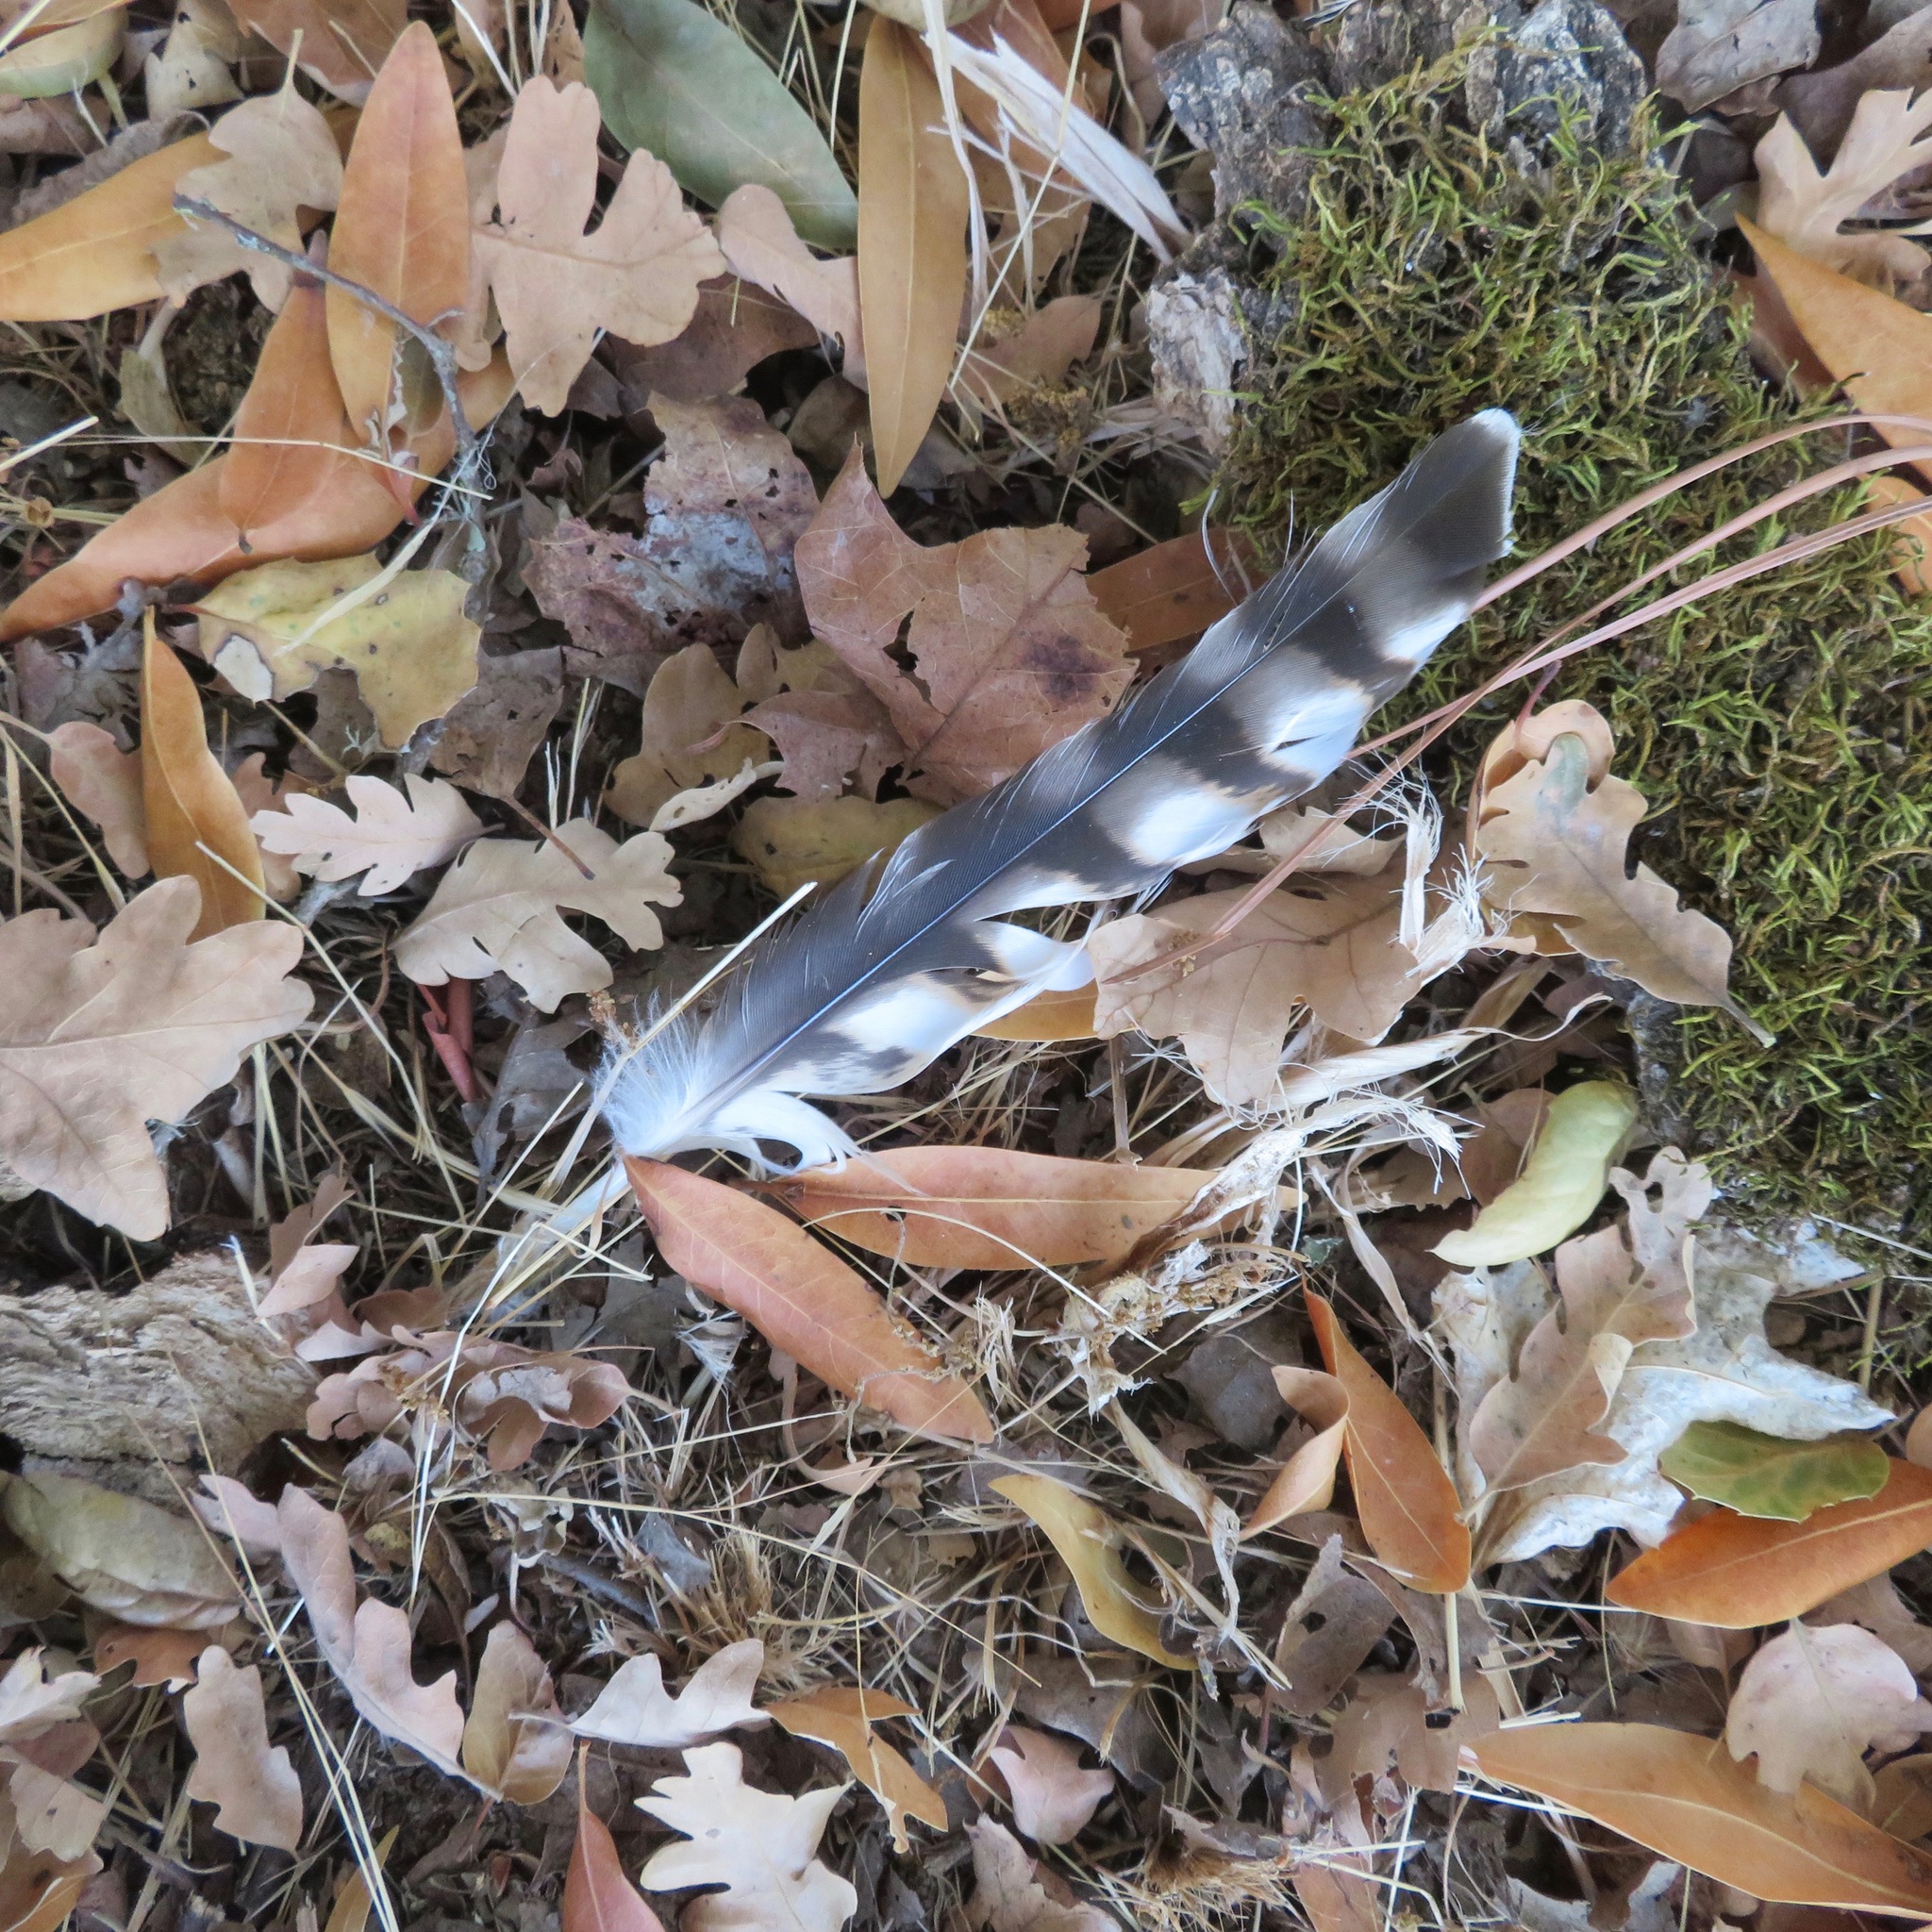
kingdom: Animalia
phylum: Chordata
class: Aves
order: Accipitriformes
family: Accipitridae
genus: Buteo
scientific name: Buteo lineatus
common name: Red-shouldered hawk
